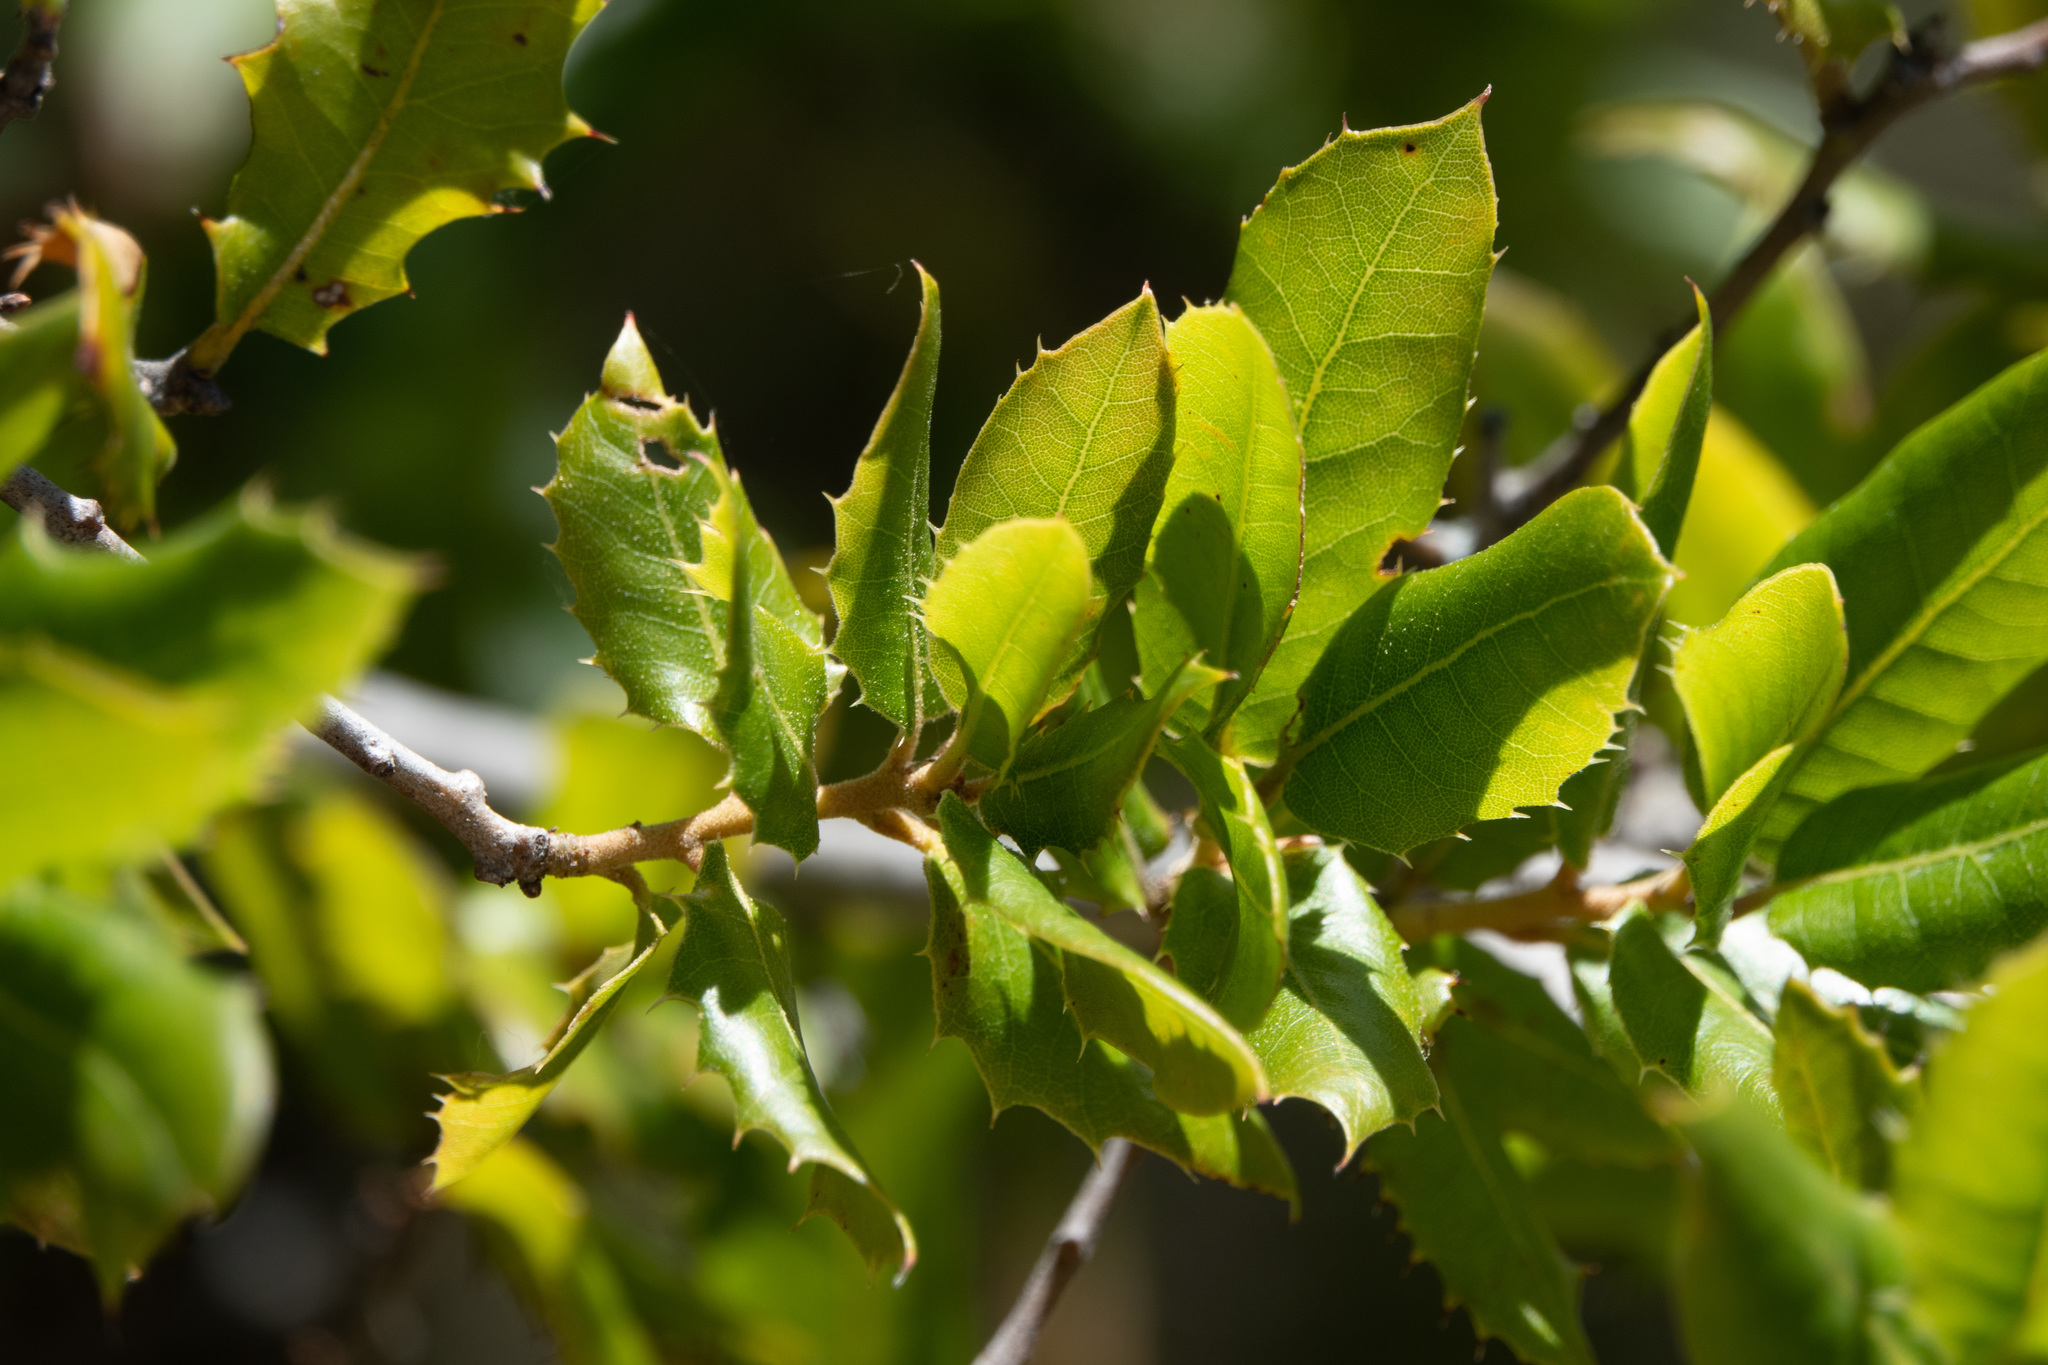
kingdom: Plantae
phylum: Tracheophyta
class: Magnoliopsida
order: Fagales
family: Fagaceae
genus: Quercus
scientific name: Quercus wislizeni
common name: Interior live oak
